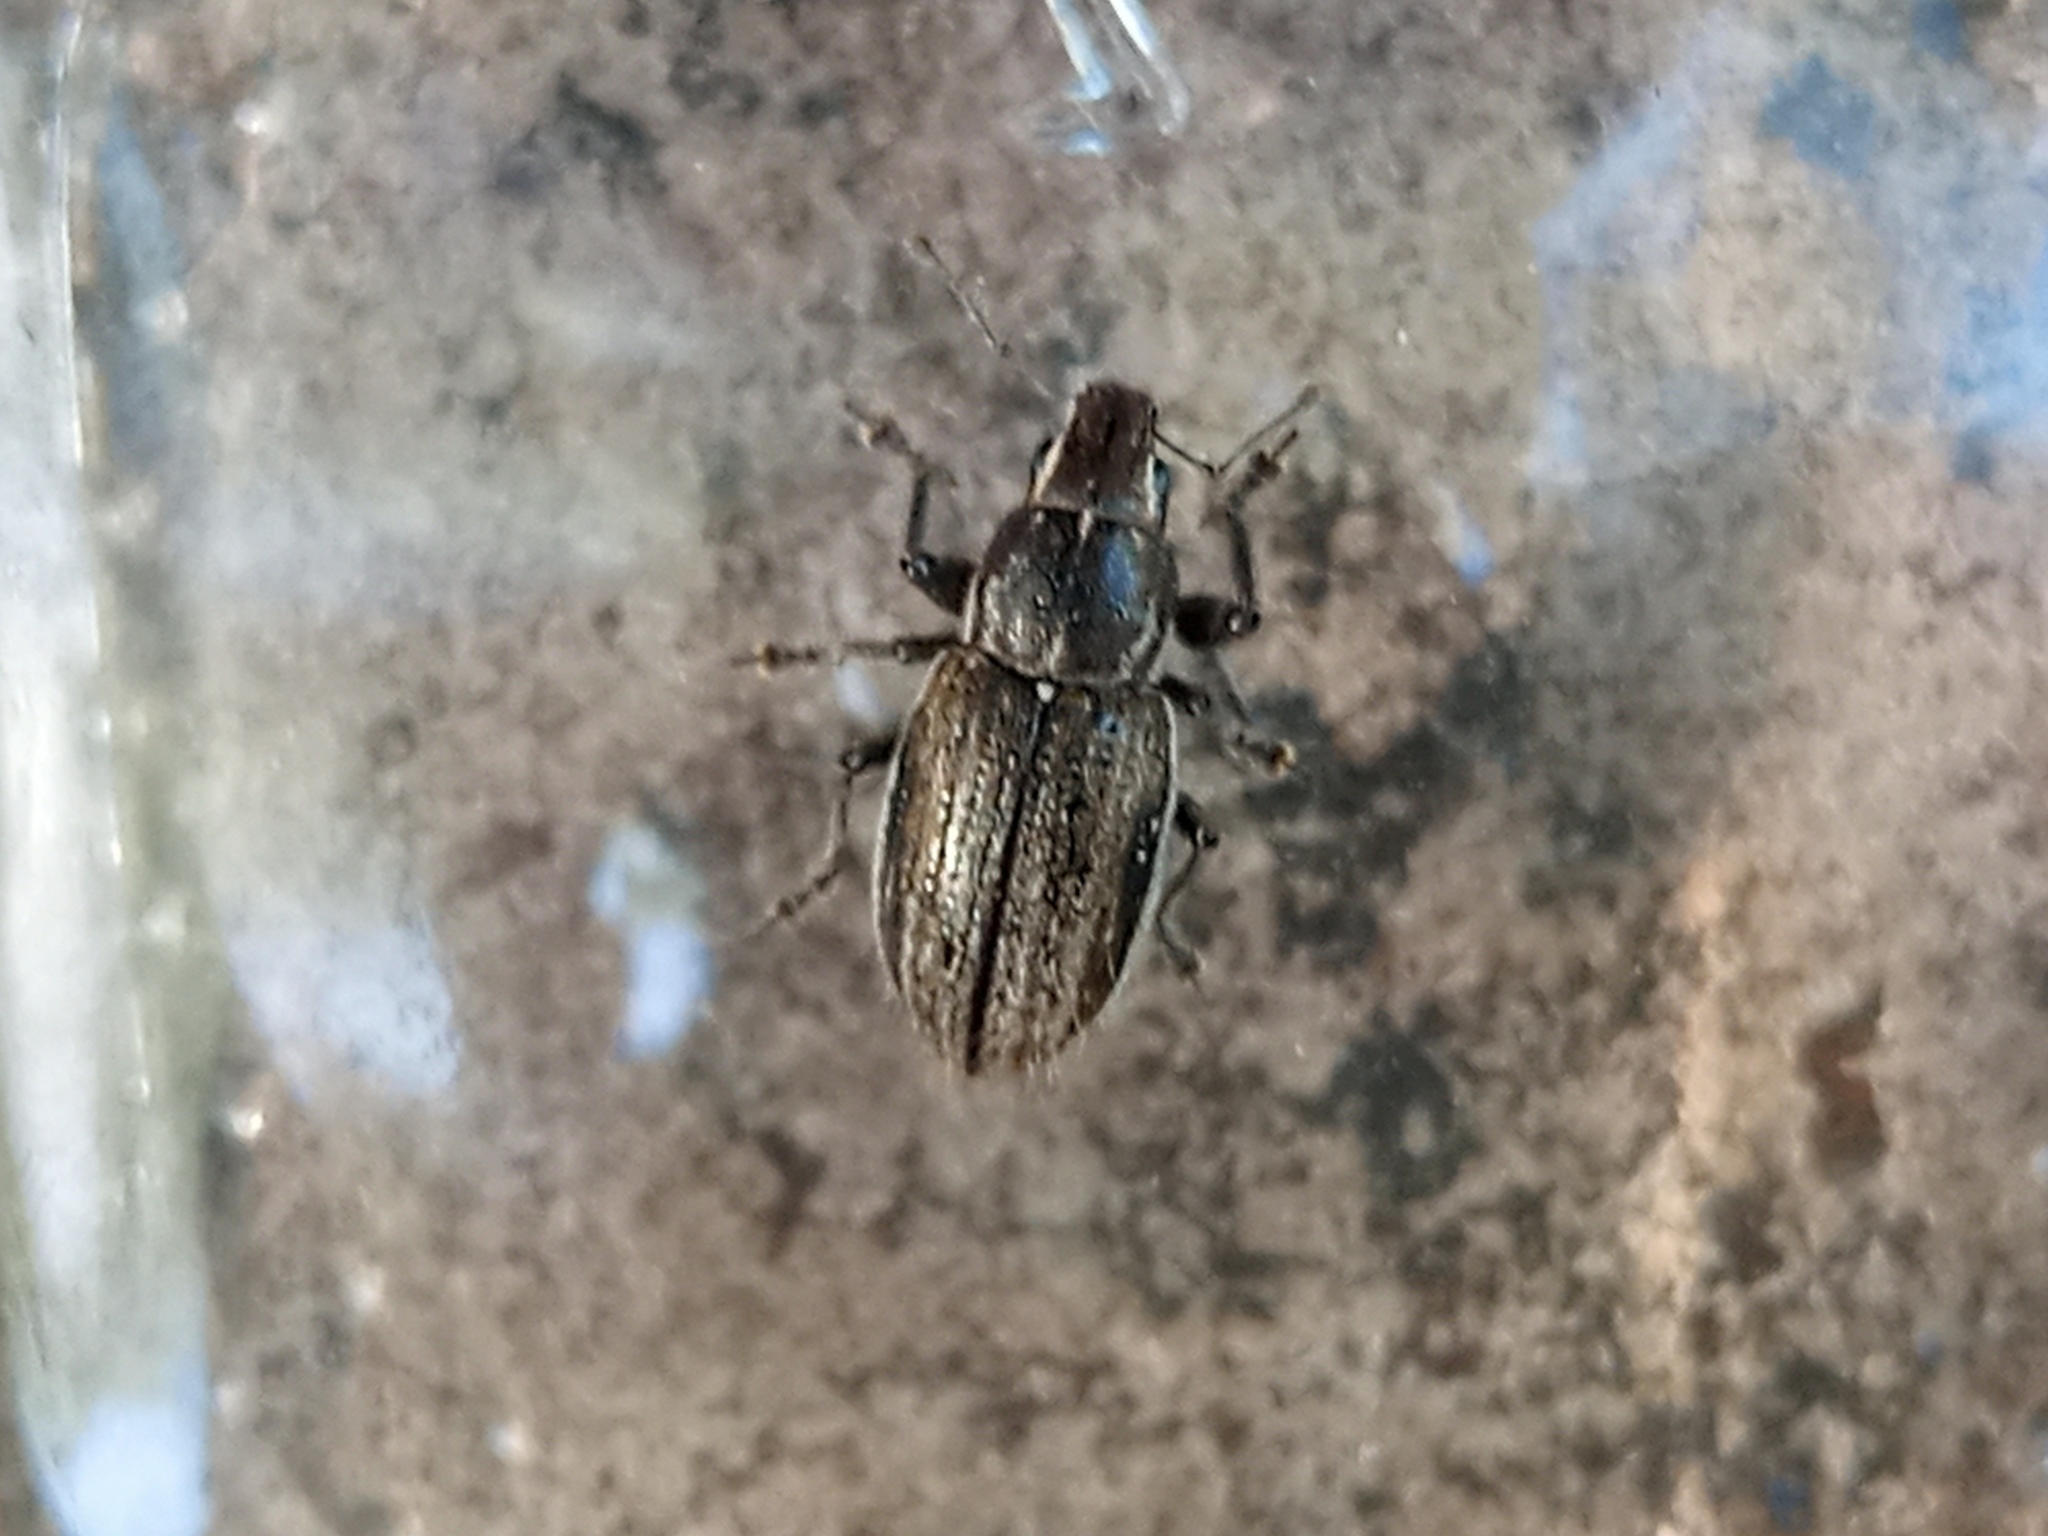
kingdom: Animalia
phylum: Arthropoda
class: Insecta
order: Coleoptera
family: Curculionidae
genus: Naupactus
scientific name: Naupactus leucoloma
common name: Whitefringed beetle
